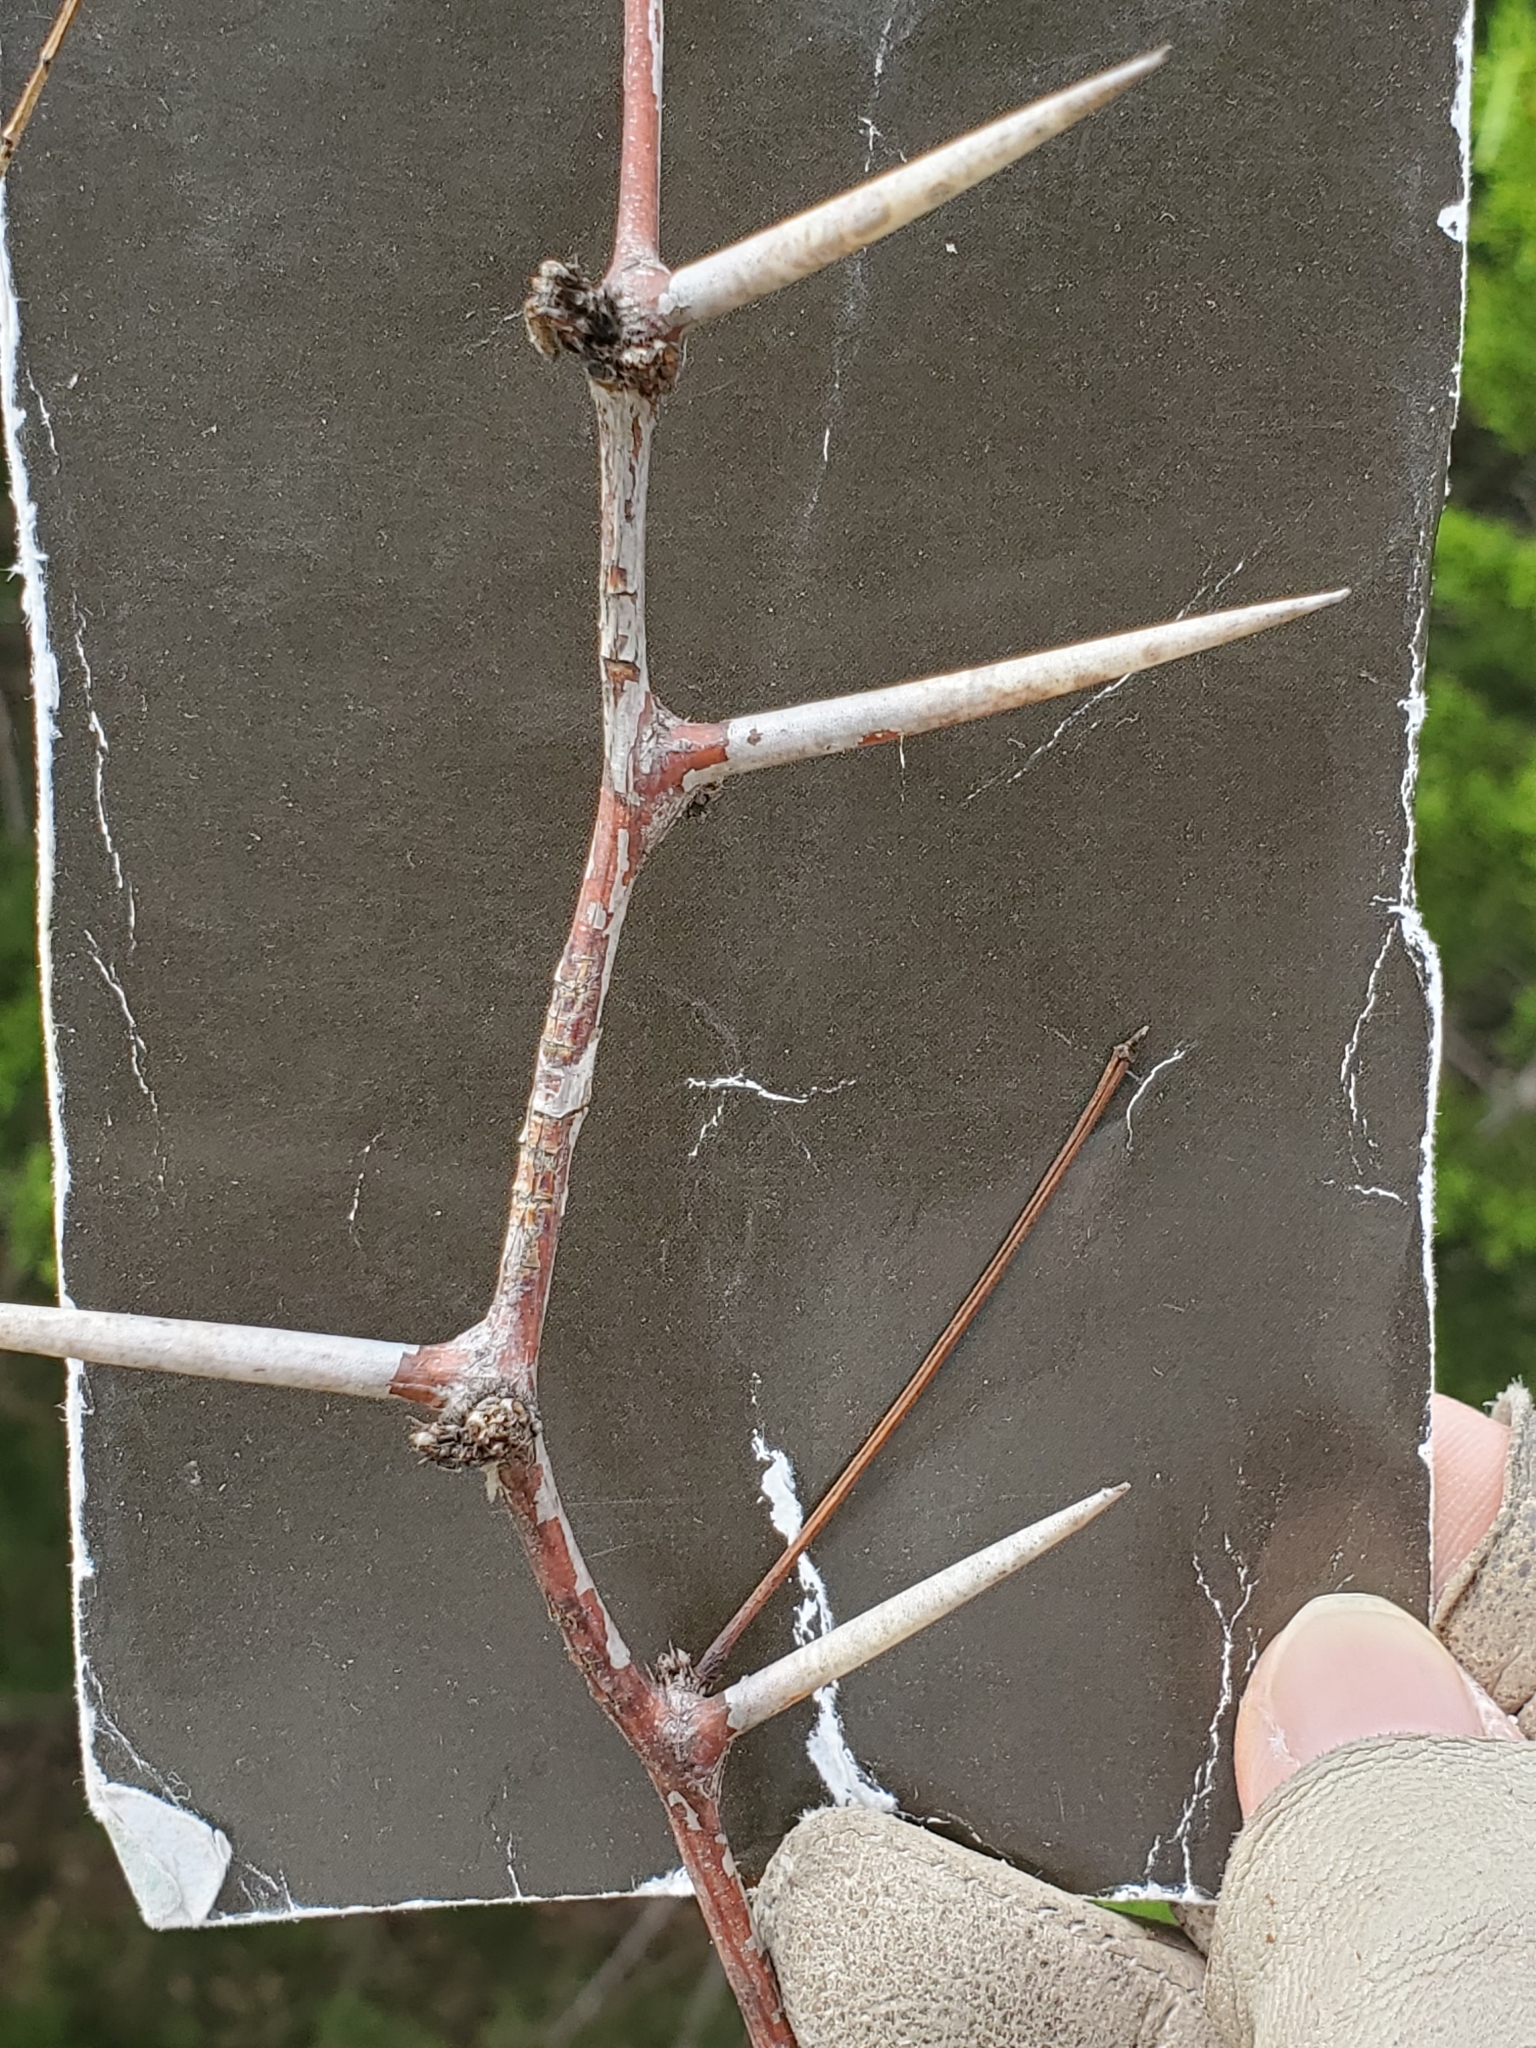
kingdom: Plantae
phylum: Tracheophyta
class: Magnoliopsida
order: Fabales
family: Fabaceae
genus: Prosopis
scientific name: Prosopis glandulosa
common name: Honey mesquite
